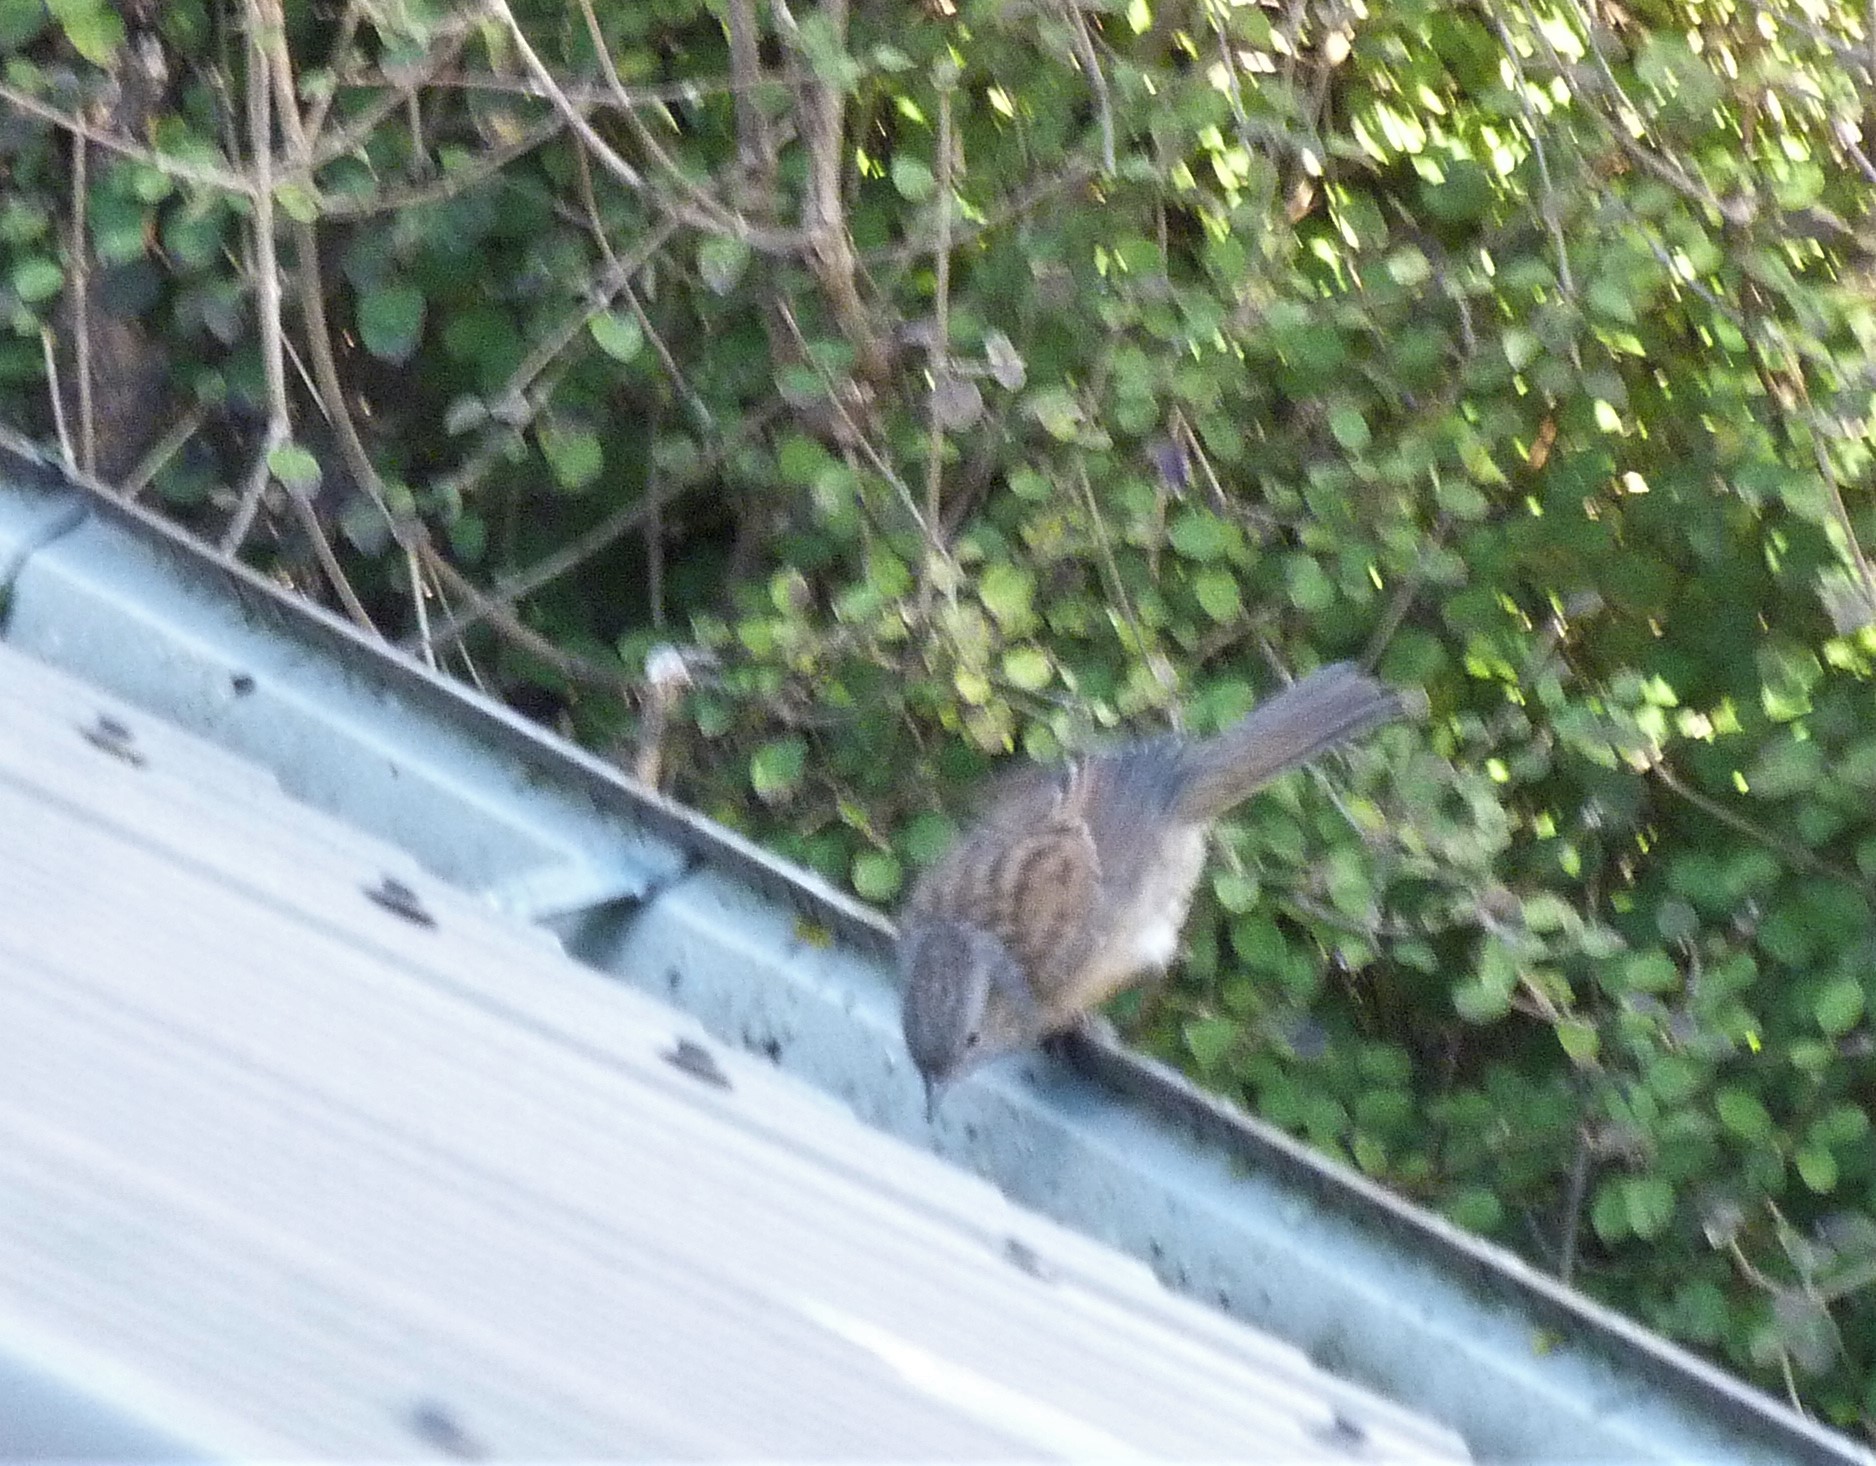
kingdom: Animalia
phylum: Chordata
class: Aves
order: Passeriformes
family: Prunellidae
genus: Prunella
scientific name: Prunella modularis
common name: Dunnock
